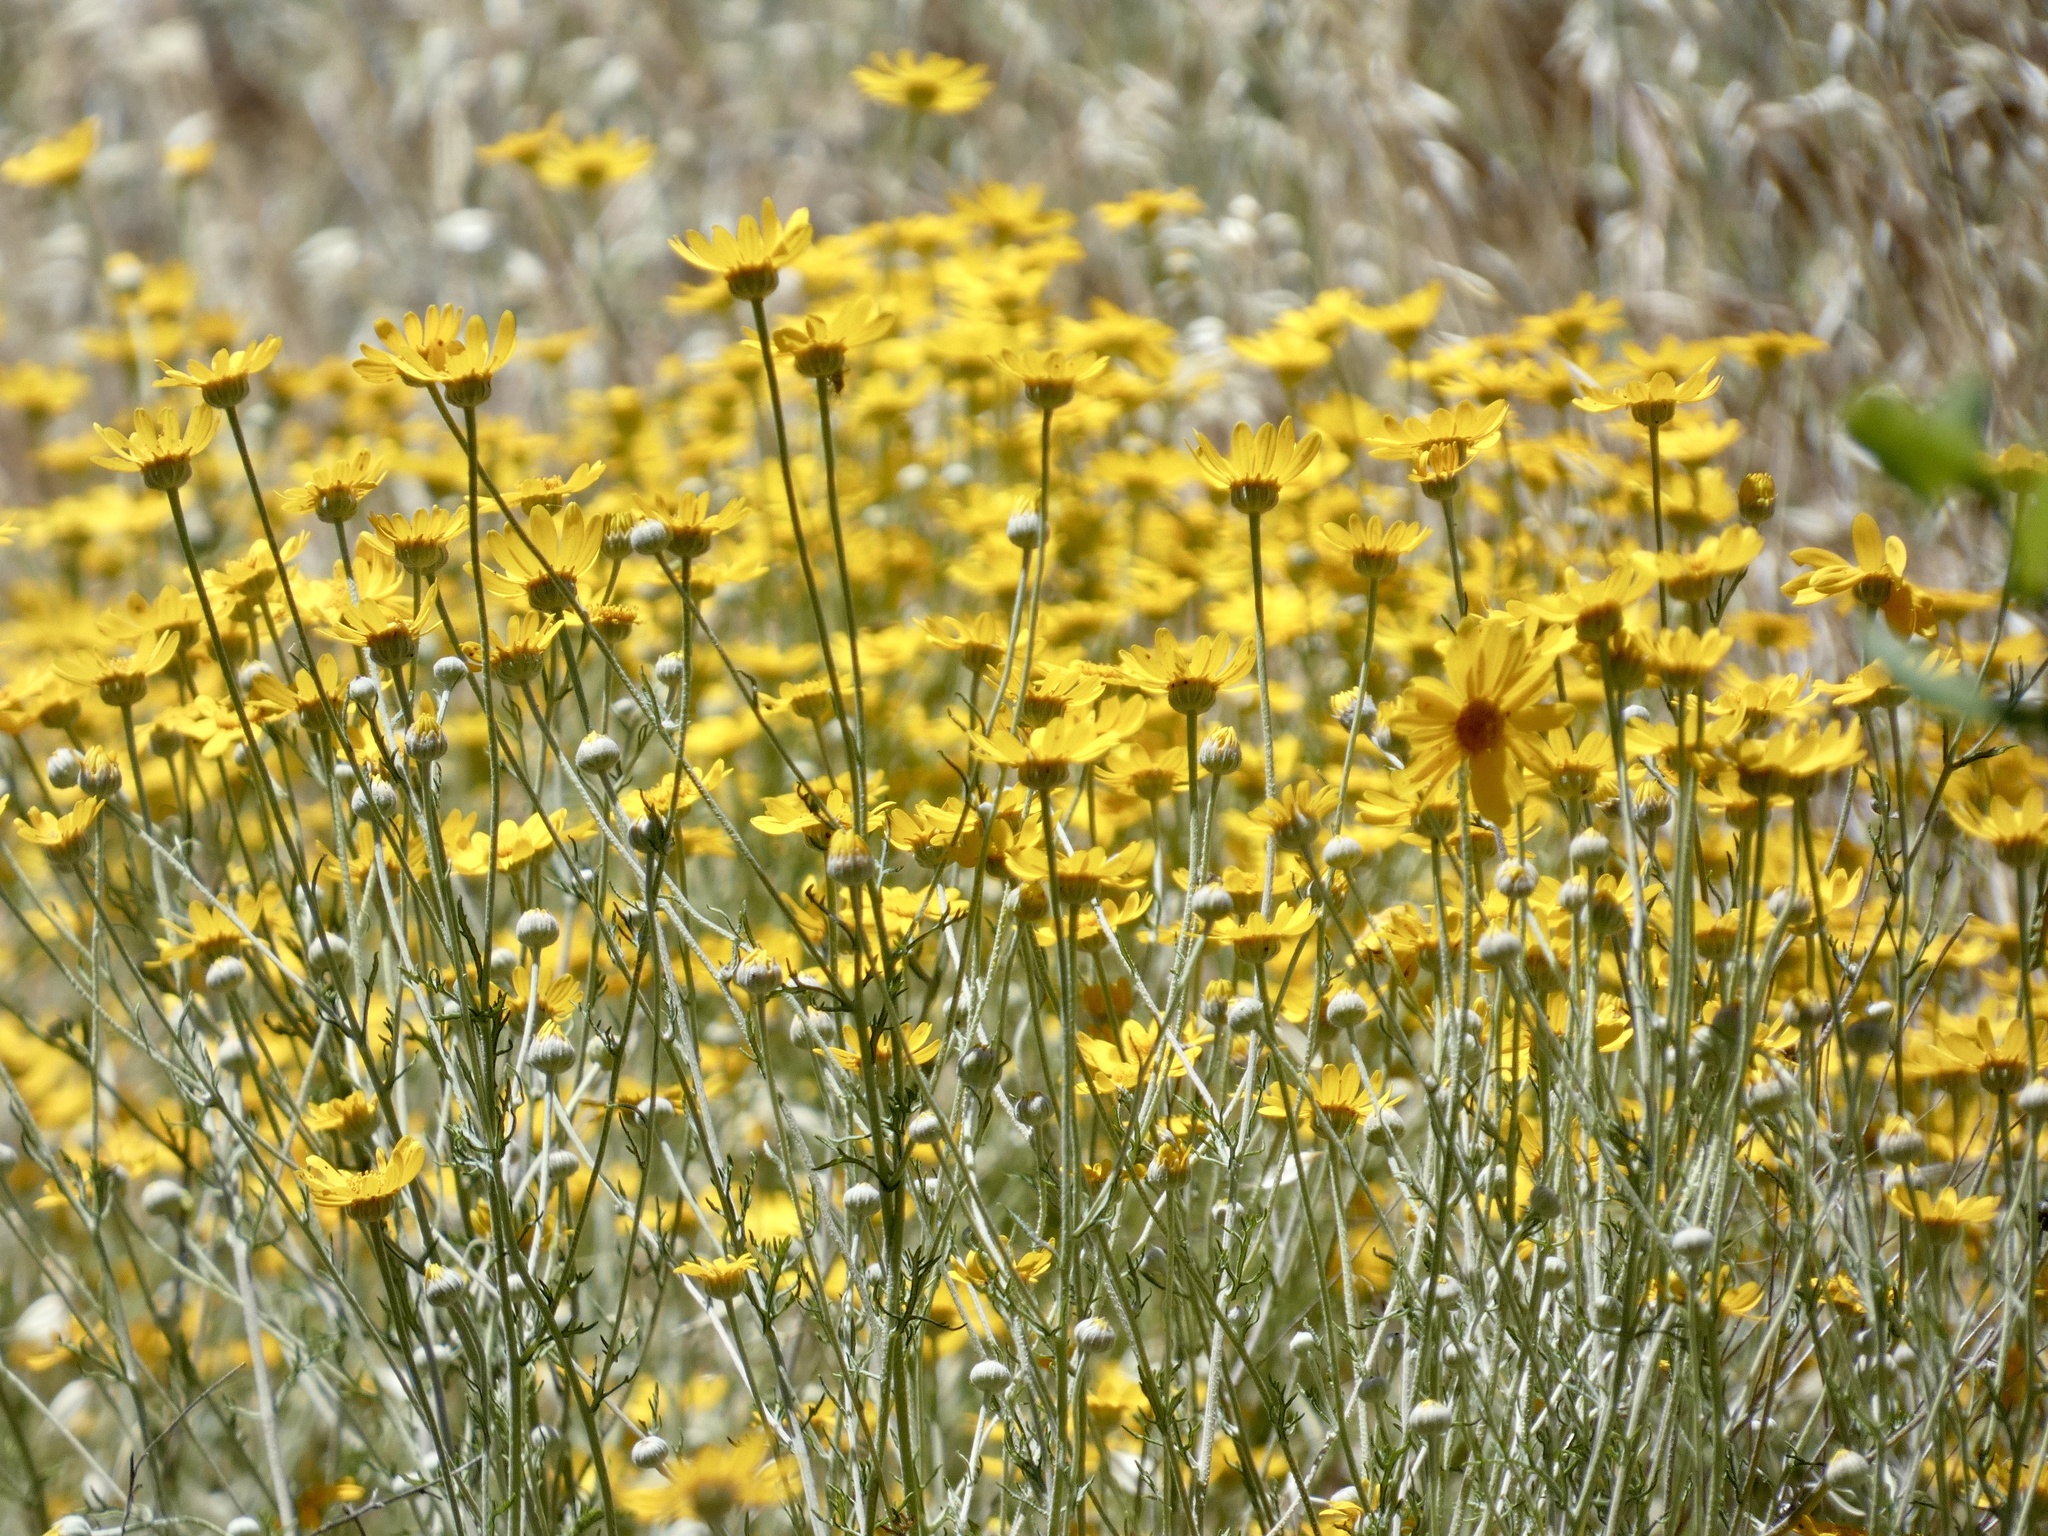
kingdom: Plantae
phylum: Tracheophyta
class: Magnoliopsida
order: Asterales
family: Asteraceae
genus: Eriophyllum
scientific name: Eriophyllum lanatum
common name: Common woolly-sunflower
